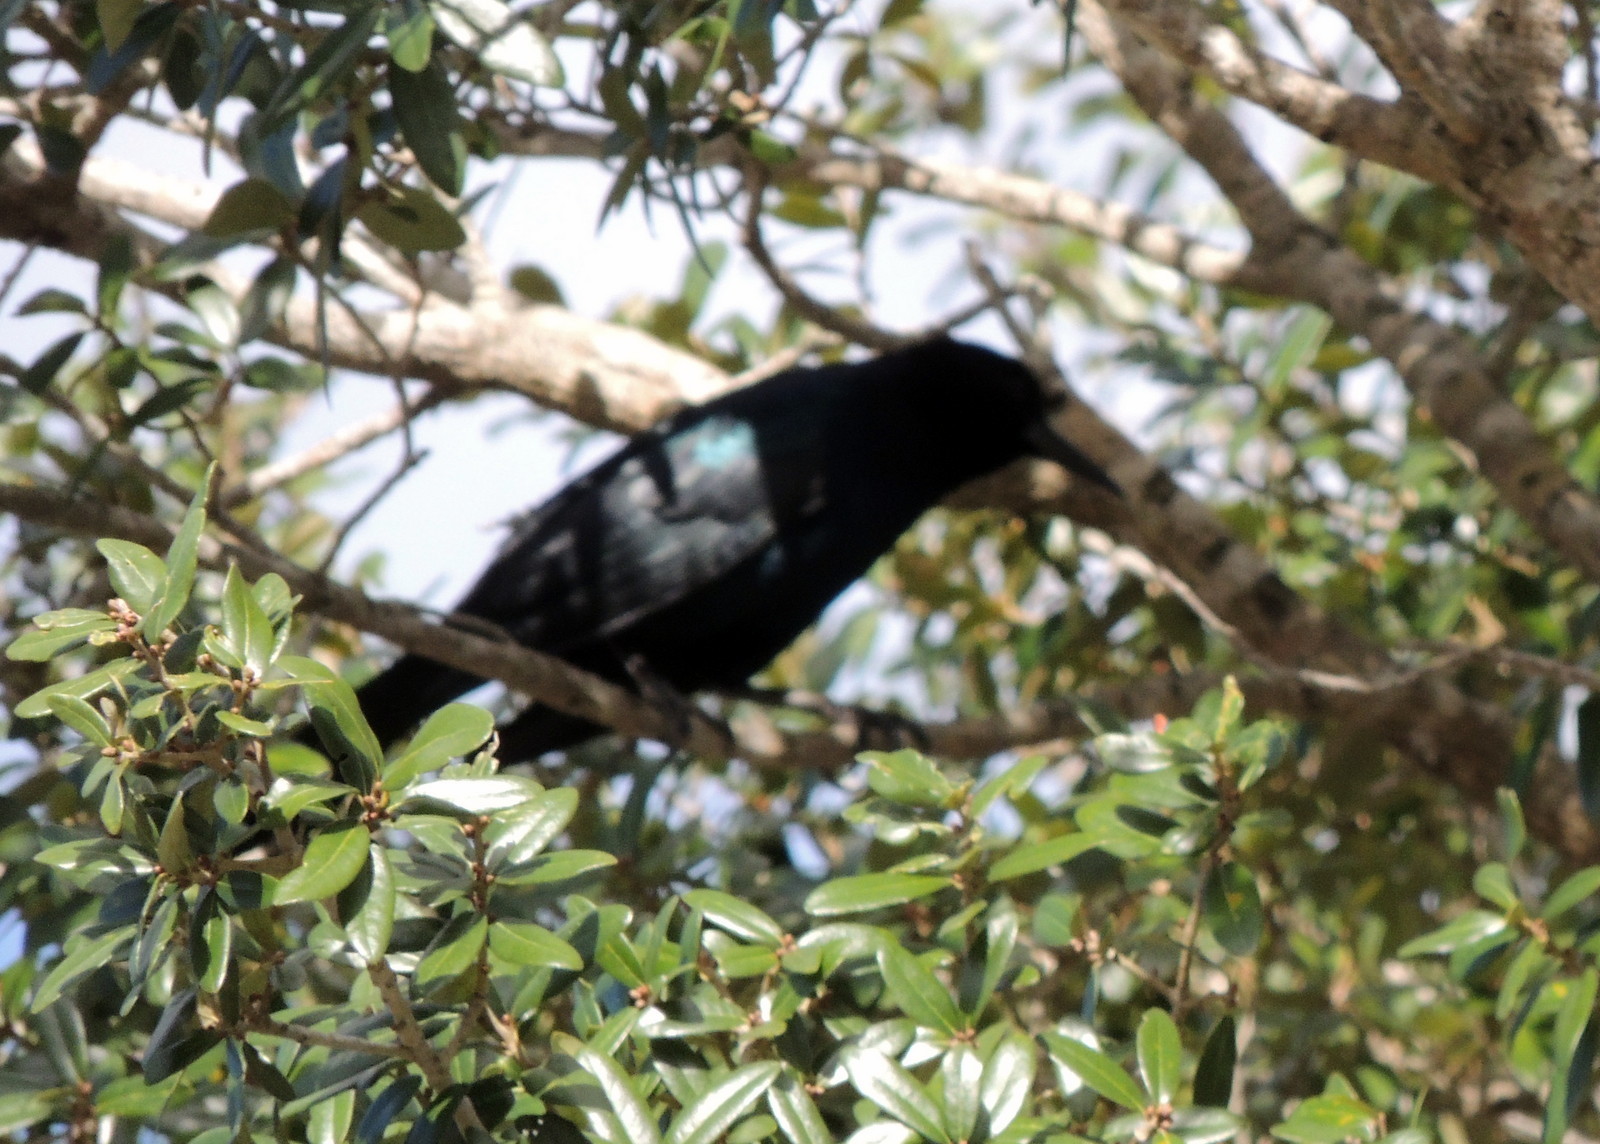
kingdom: Animalia
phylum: Chordata
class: Aves
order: Passeriformes
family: Icteridae
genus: Quiscalus
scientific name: Quiscalus major
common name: Boat-tailed grackle
